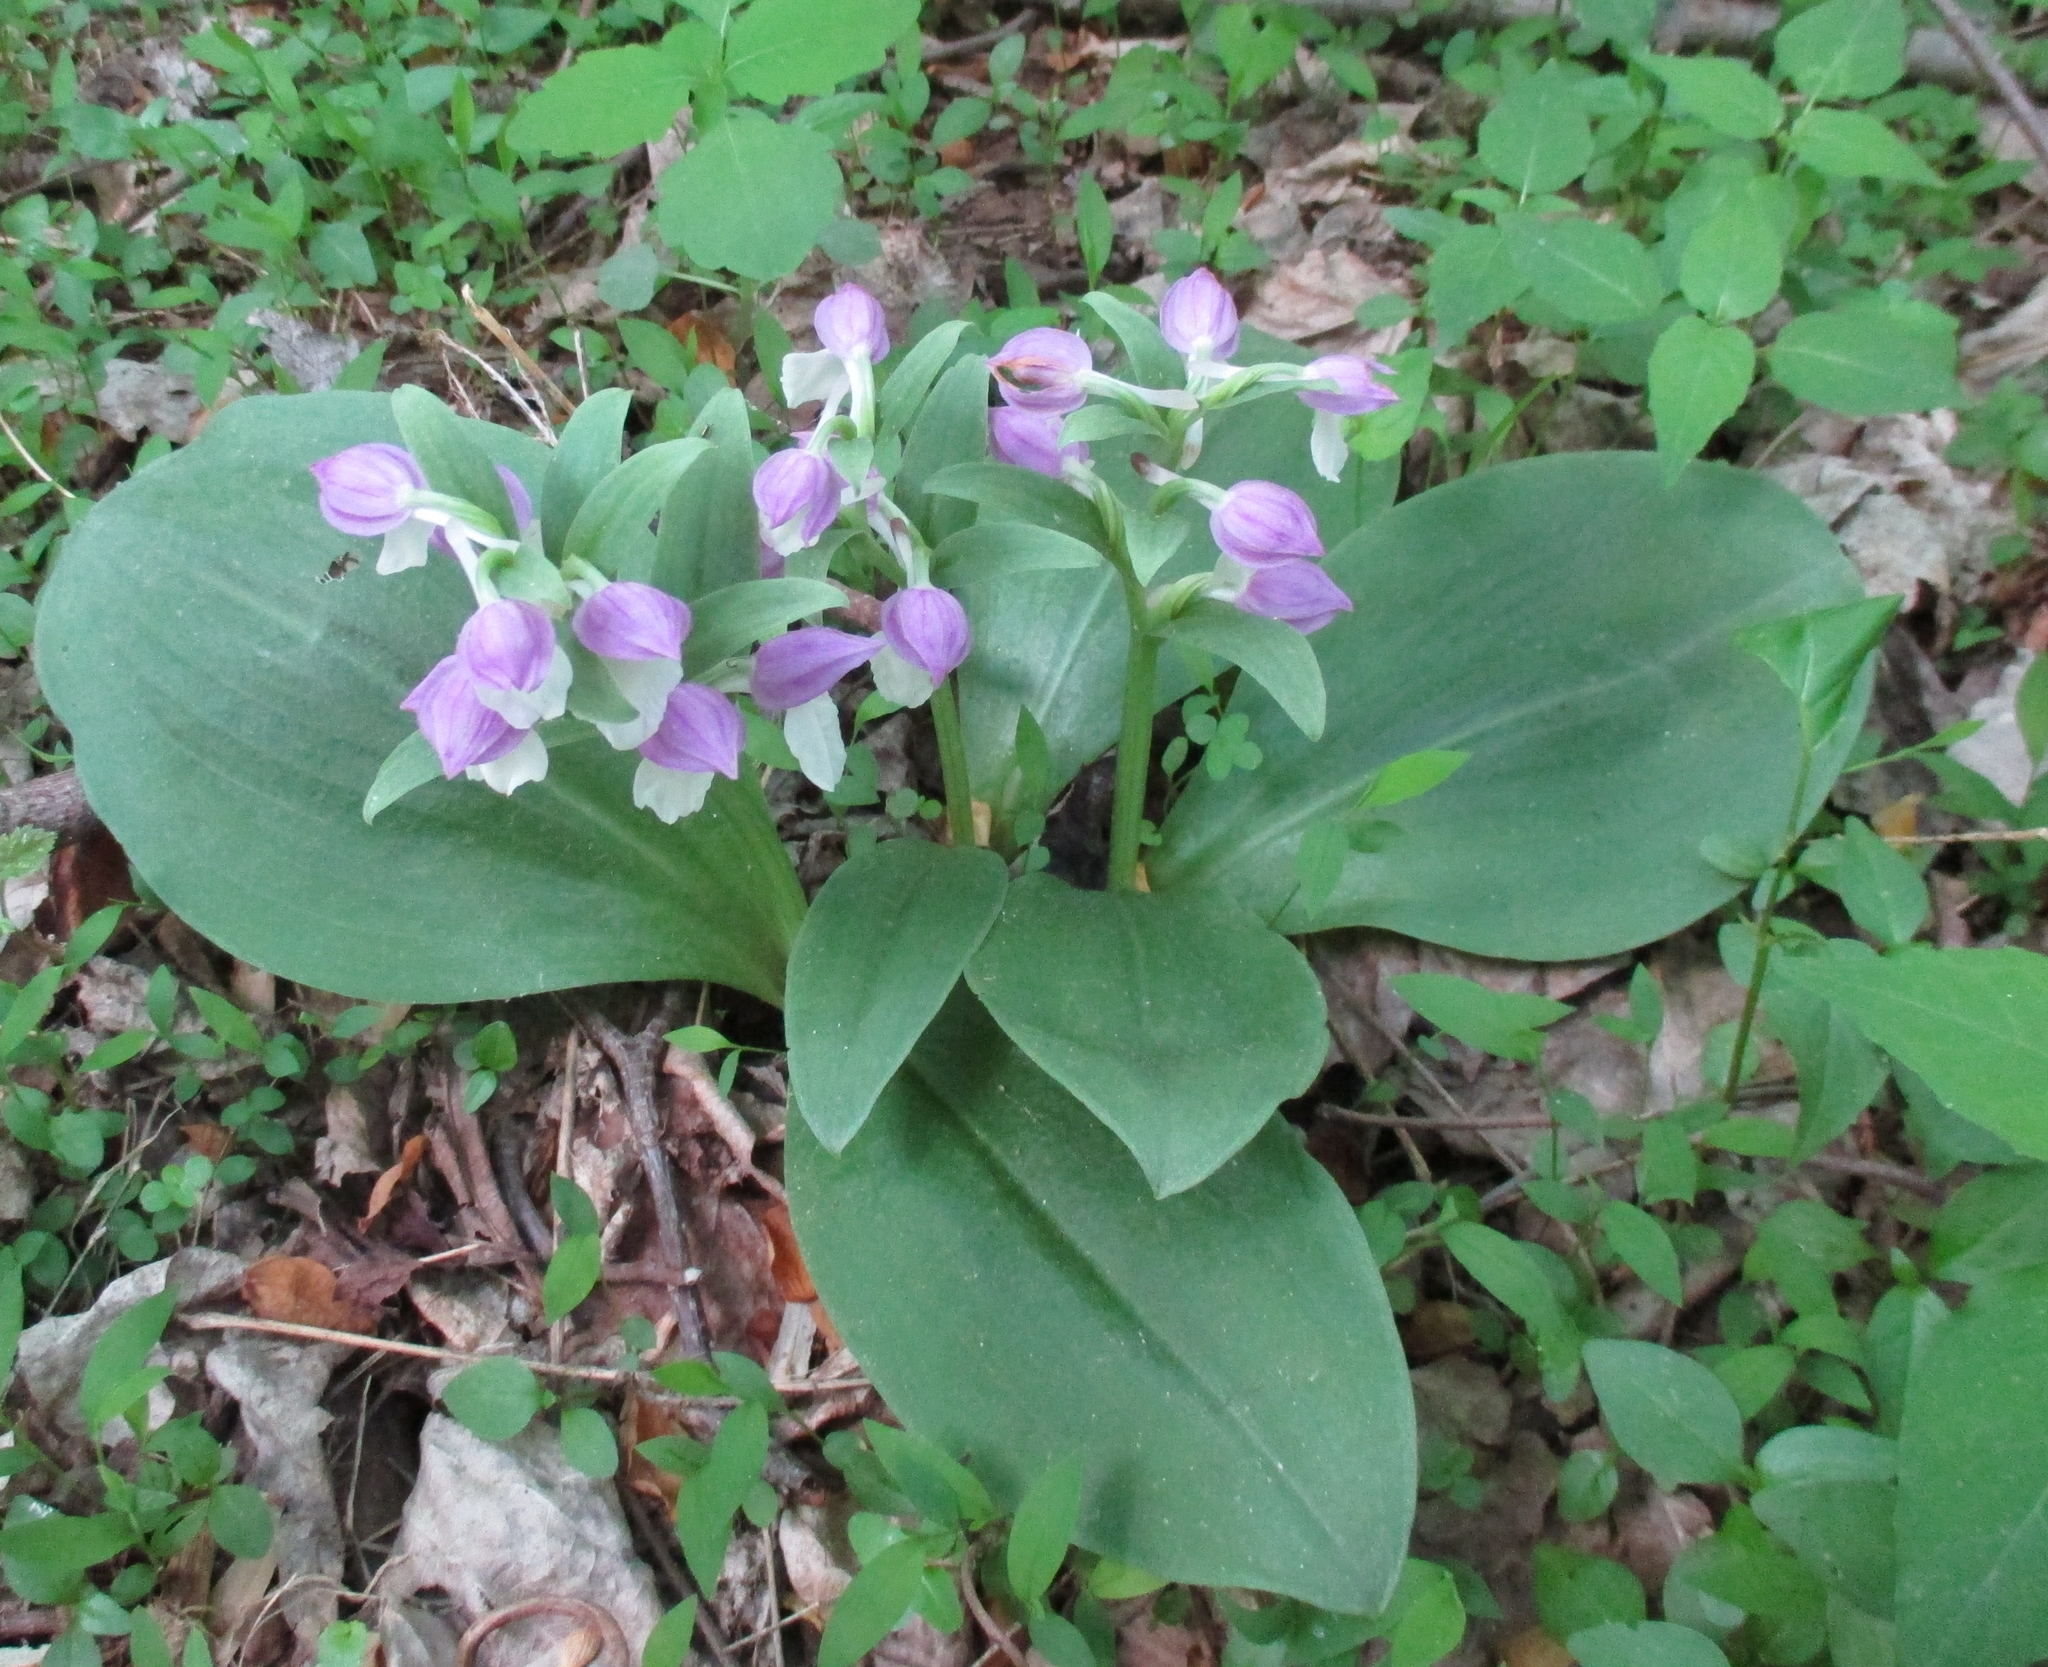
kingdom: Plantae
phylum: Tracheophyta
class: Liliopsida
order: Asparagales
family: Orchidaceae
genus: Galearis
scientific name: Galearis spectabilis
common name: Purple-hooded orchis
